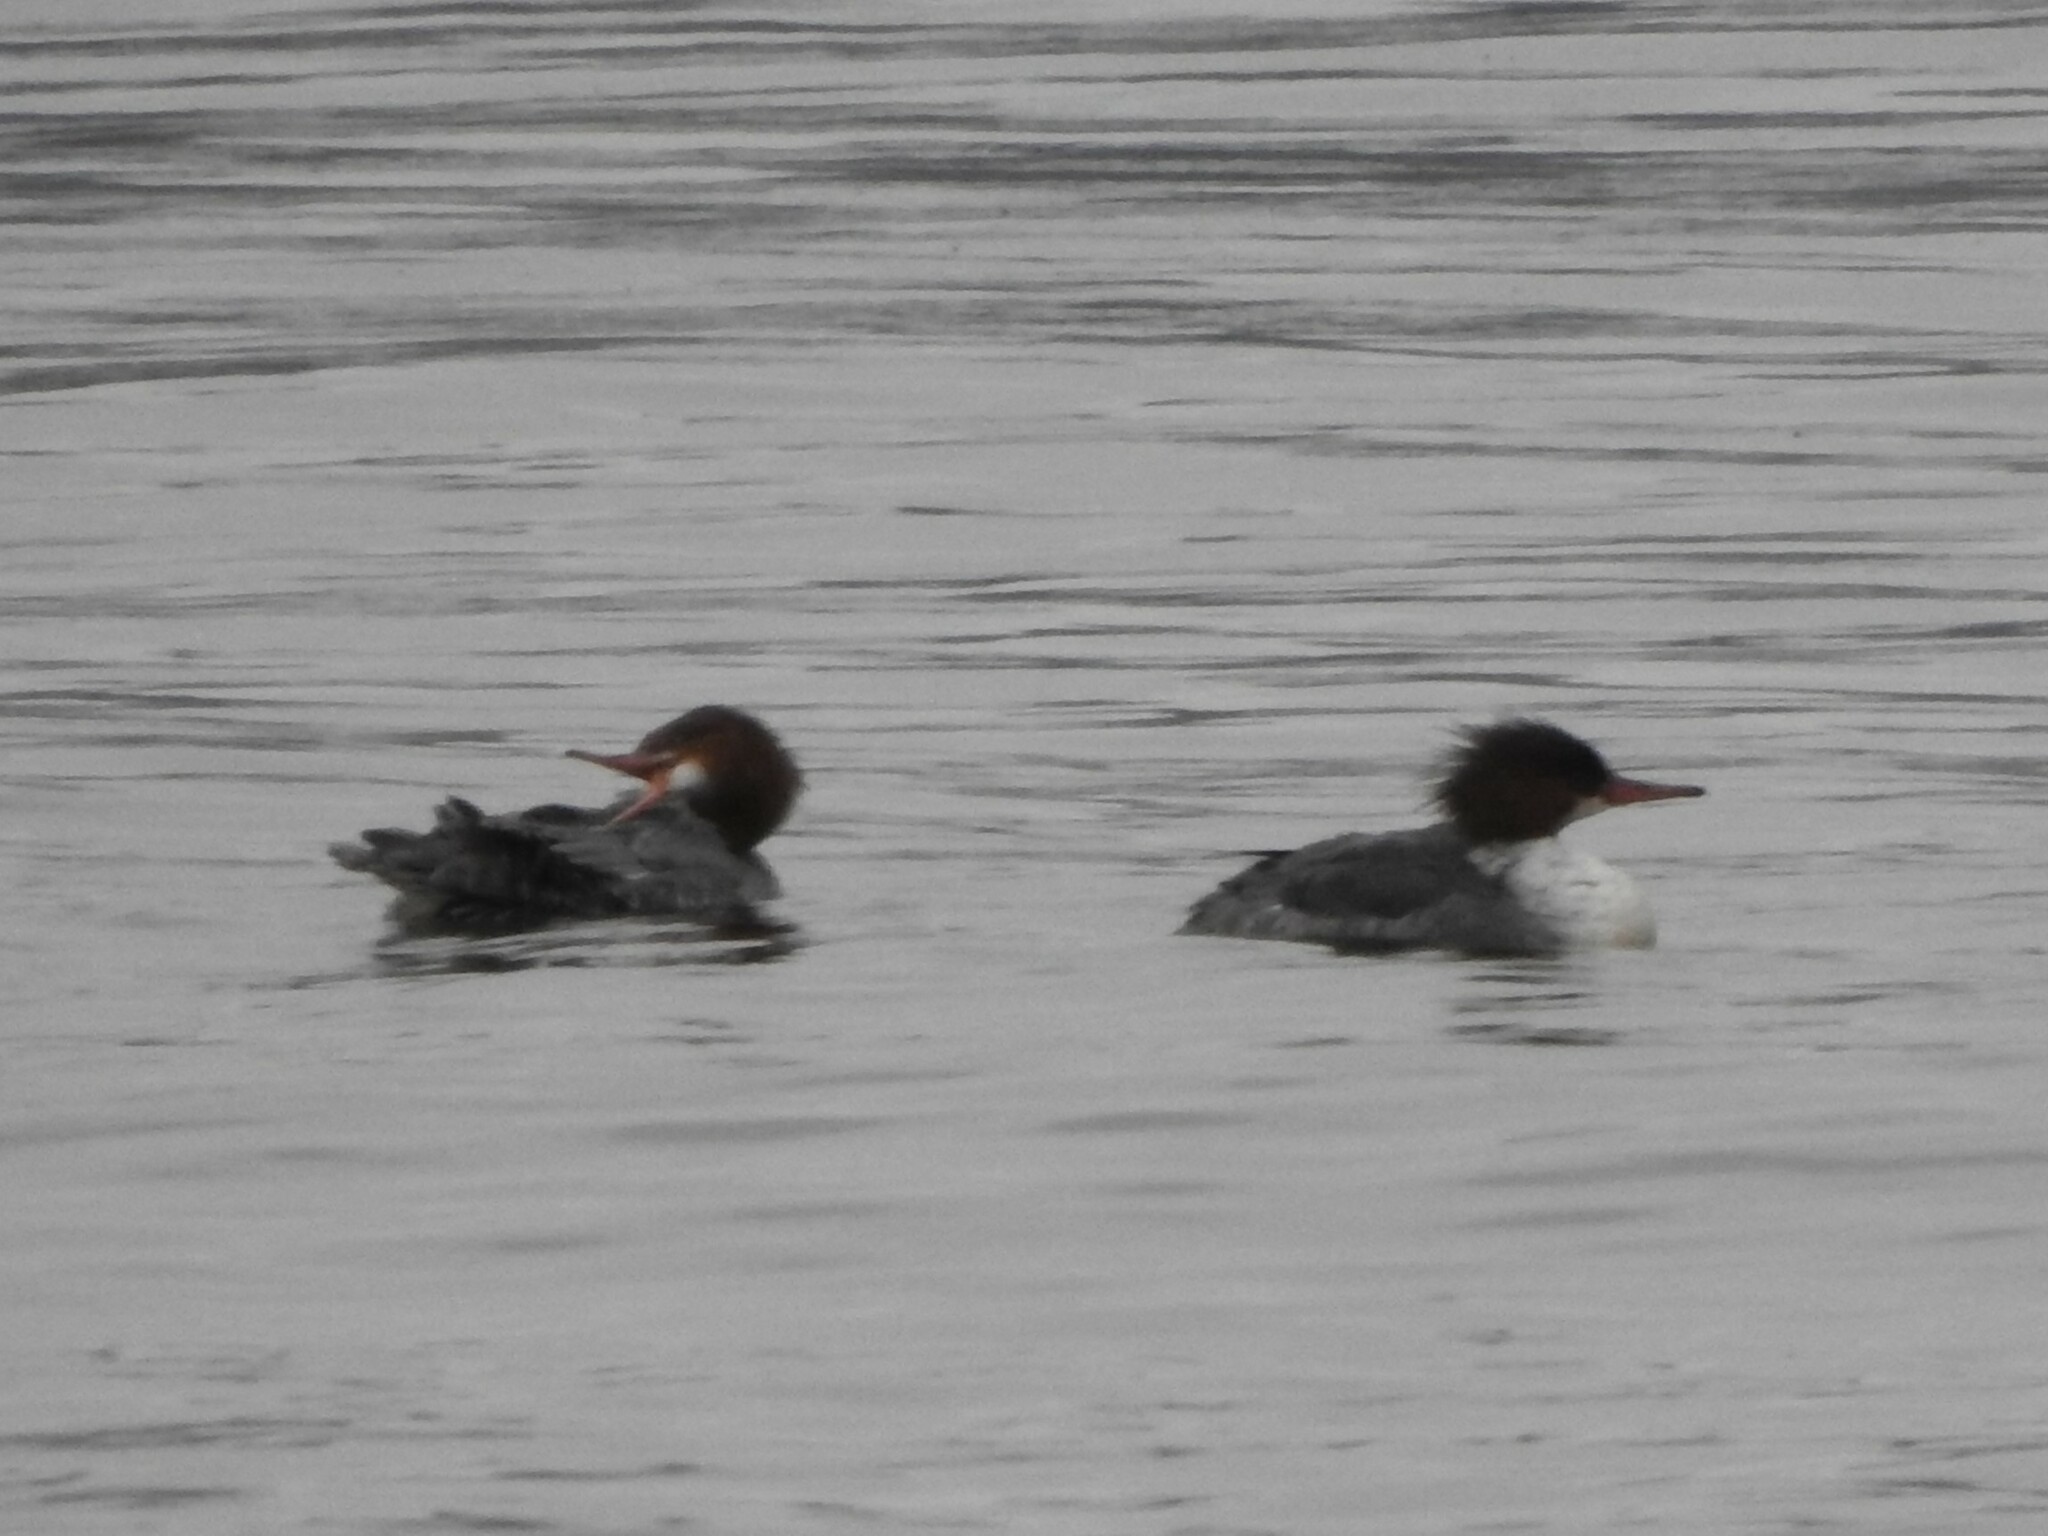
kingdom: Animalia
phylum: Chordata
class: Aves
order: Anseriformes
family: Anatidae
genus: Mergus
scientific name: Mergus merganser
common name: Common merganser
